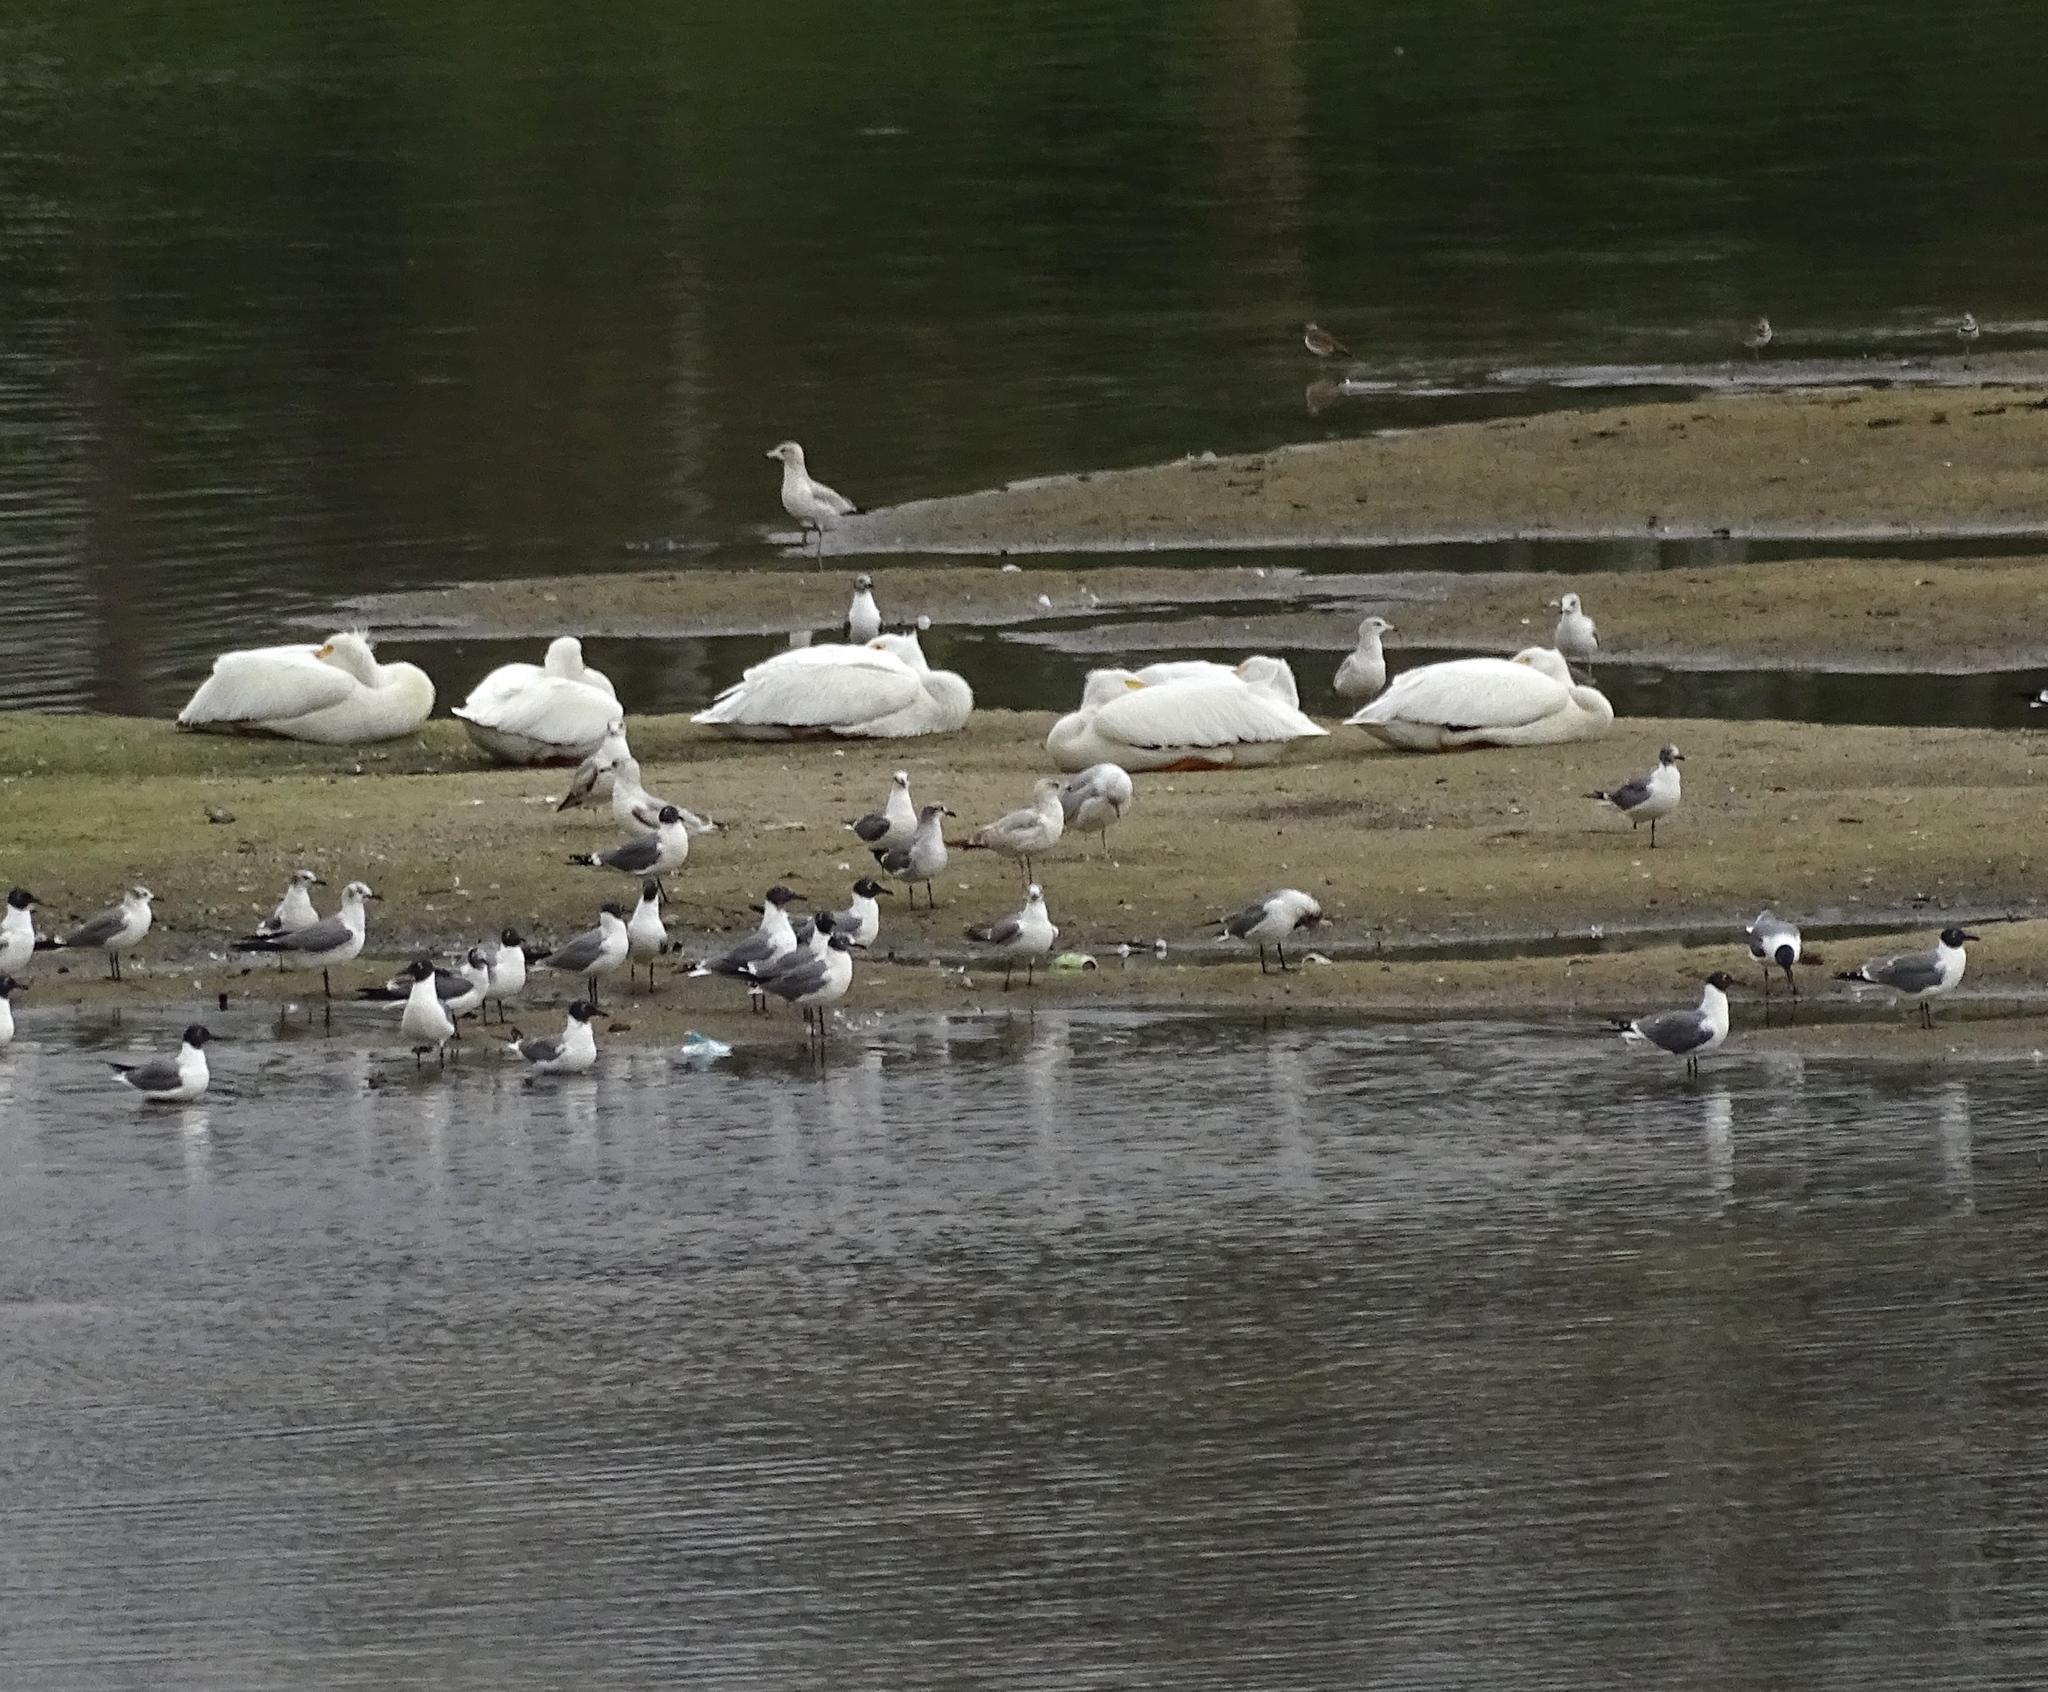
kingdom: Animalia
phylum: Chordata
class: Aves
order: Pelecaniformes
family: Pelecanidae
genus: Pelecanus
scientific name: Pelecanus erythrorhynchos
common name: American white pelican
